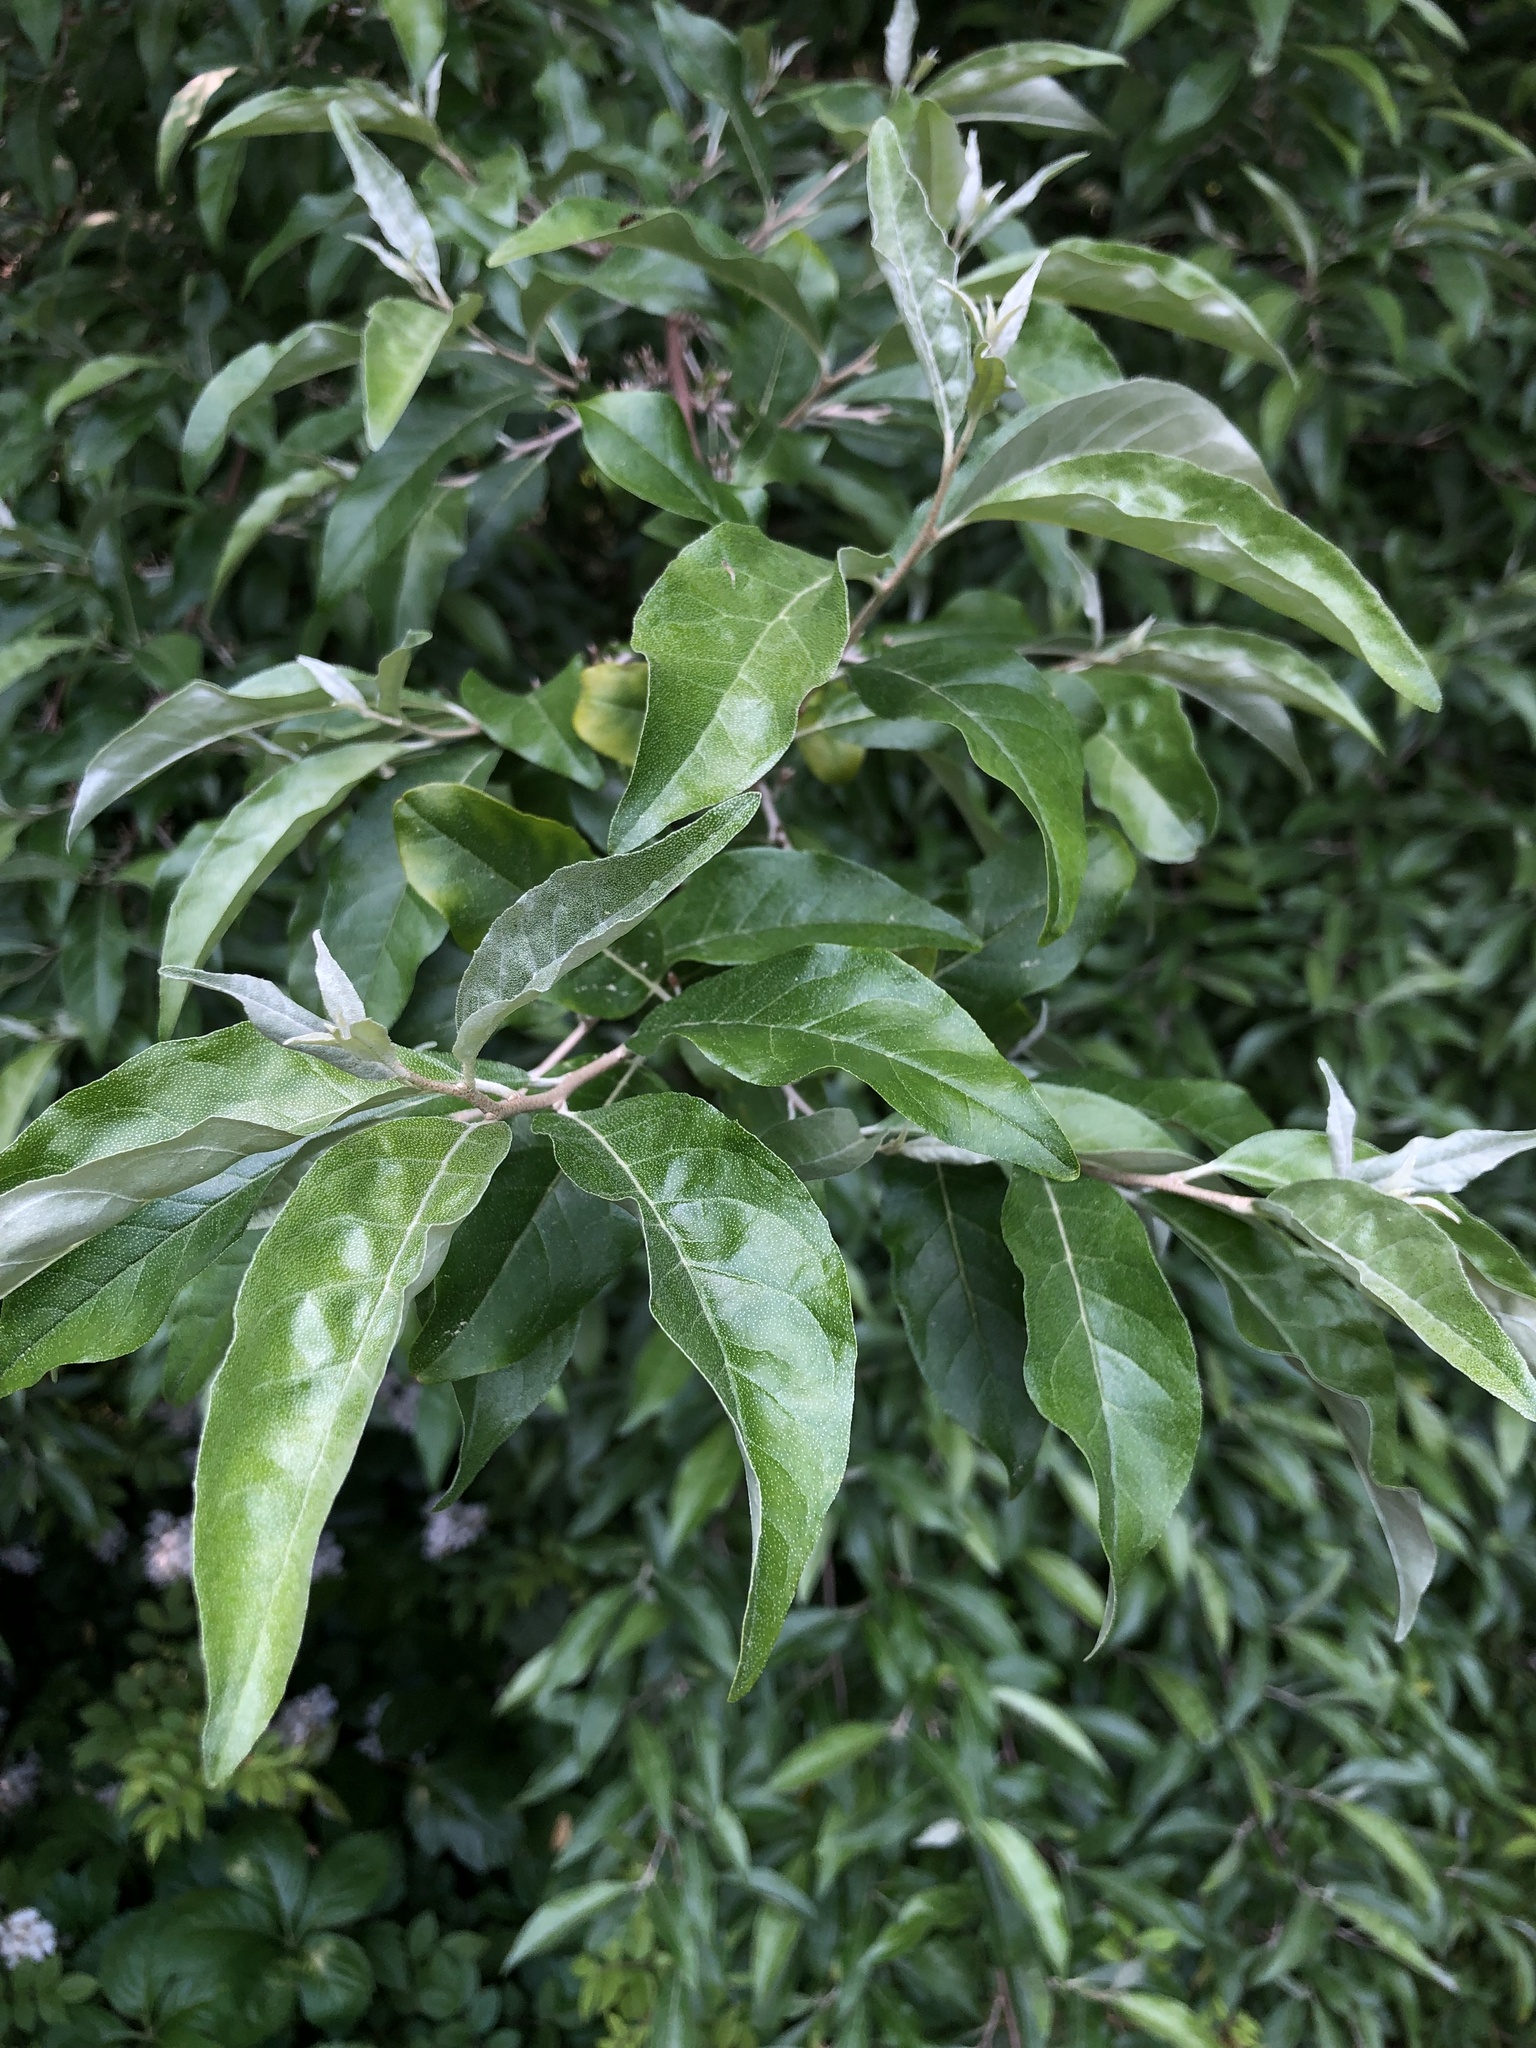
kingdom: Plantae
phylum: Tracheophyta
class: Magnoliopsida
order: Rosales
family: Elaeagnaceae
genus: Elaeagnus
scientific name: Elaeagnus umbellata
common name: Autumn olive
